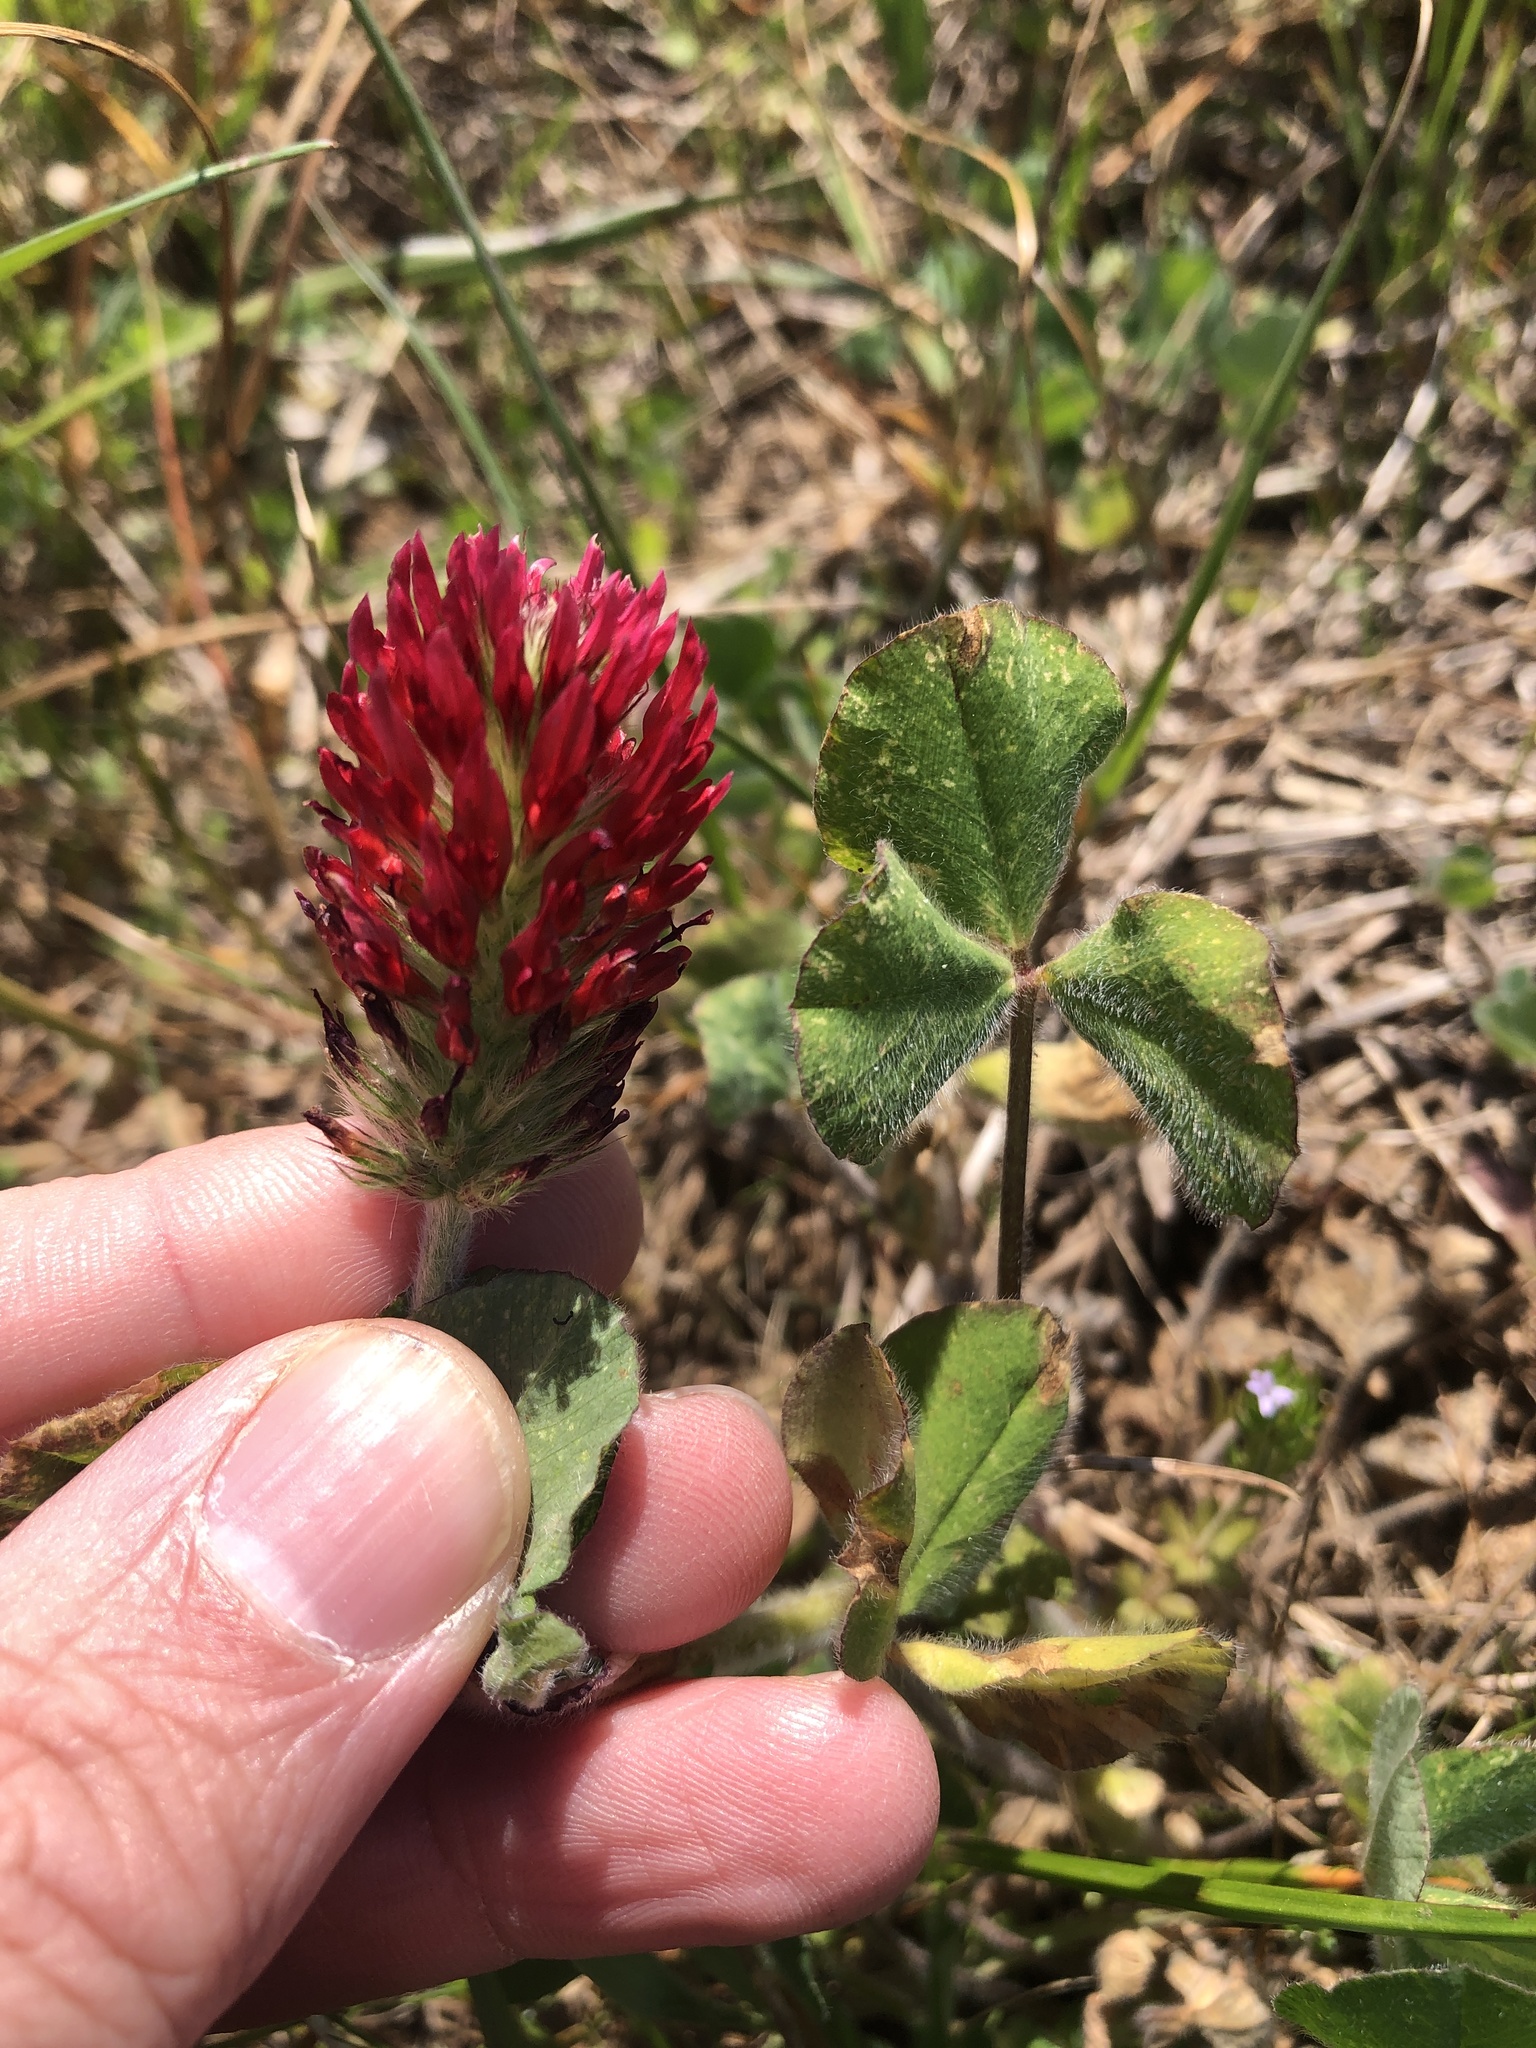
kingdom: Plantae
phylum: Tracheophyta
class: Magnoliopsida
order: Fabales
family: Fabaceae
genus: Trifolium
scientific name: Trifolium incarnatum
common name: Crimson clover
